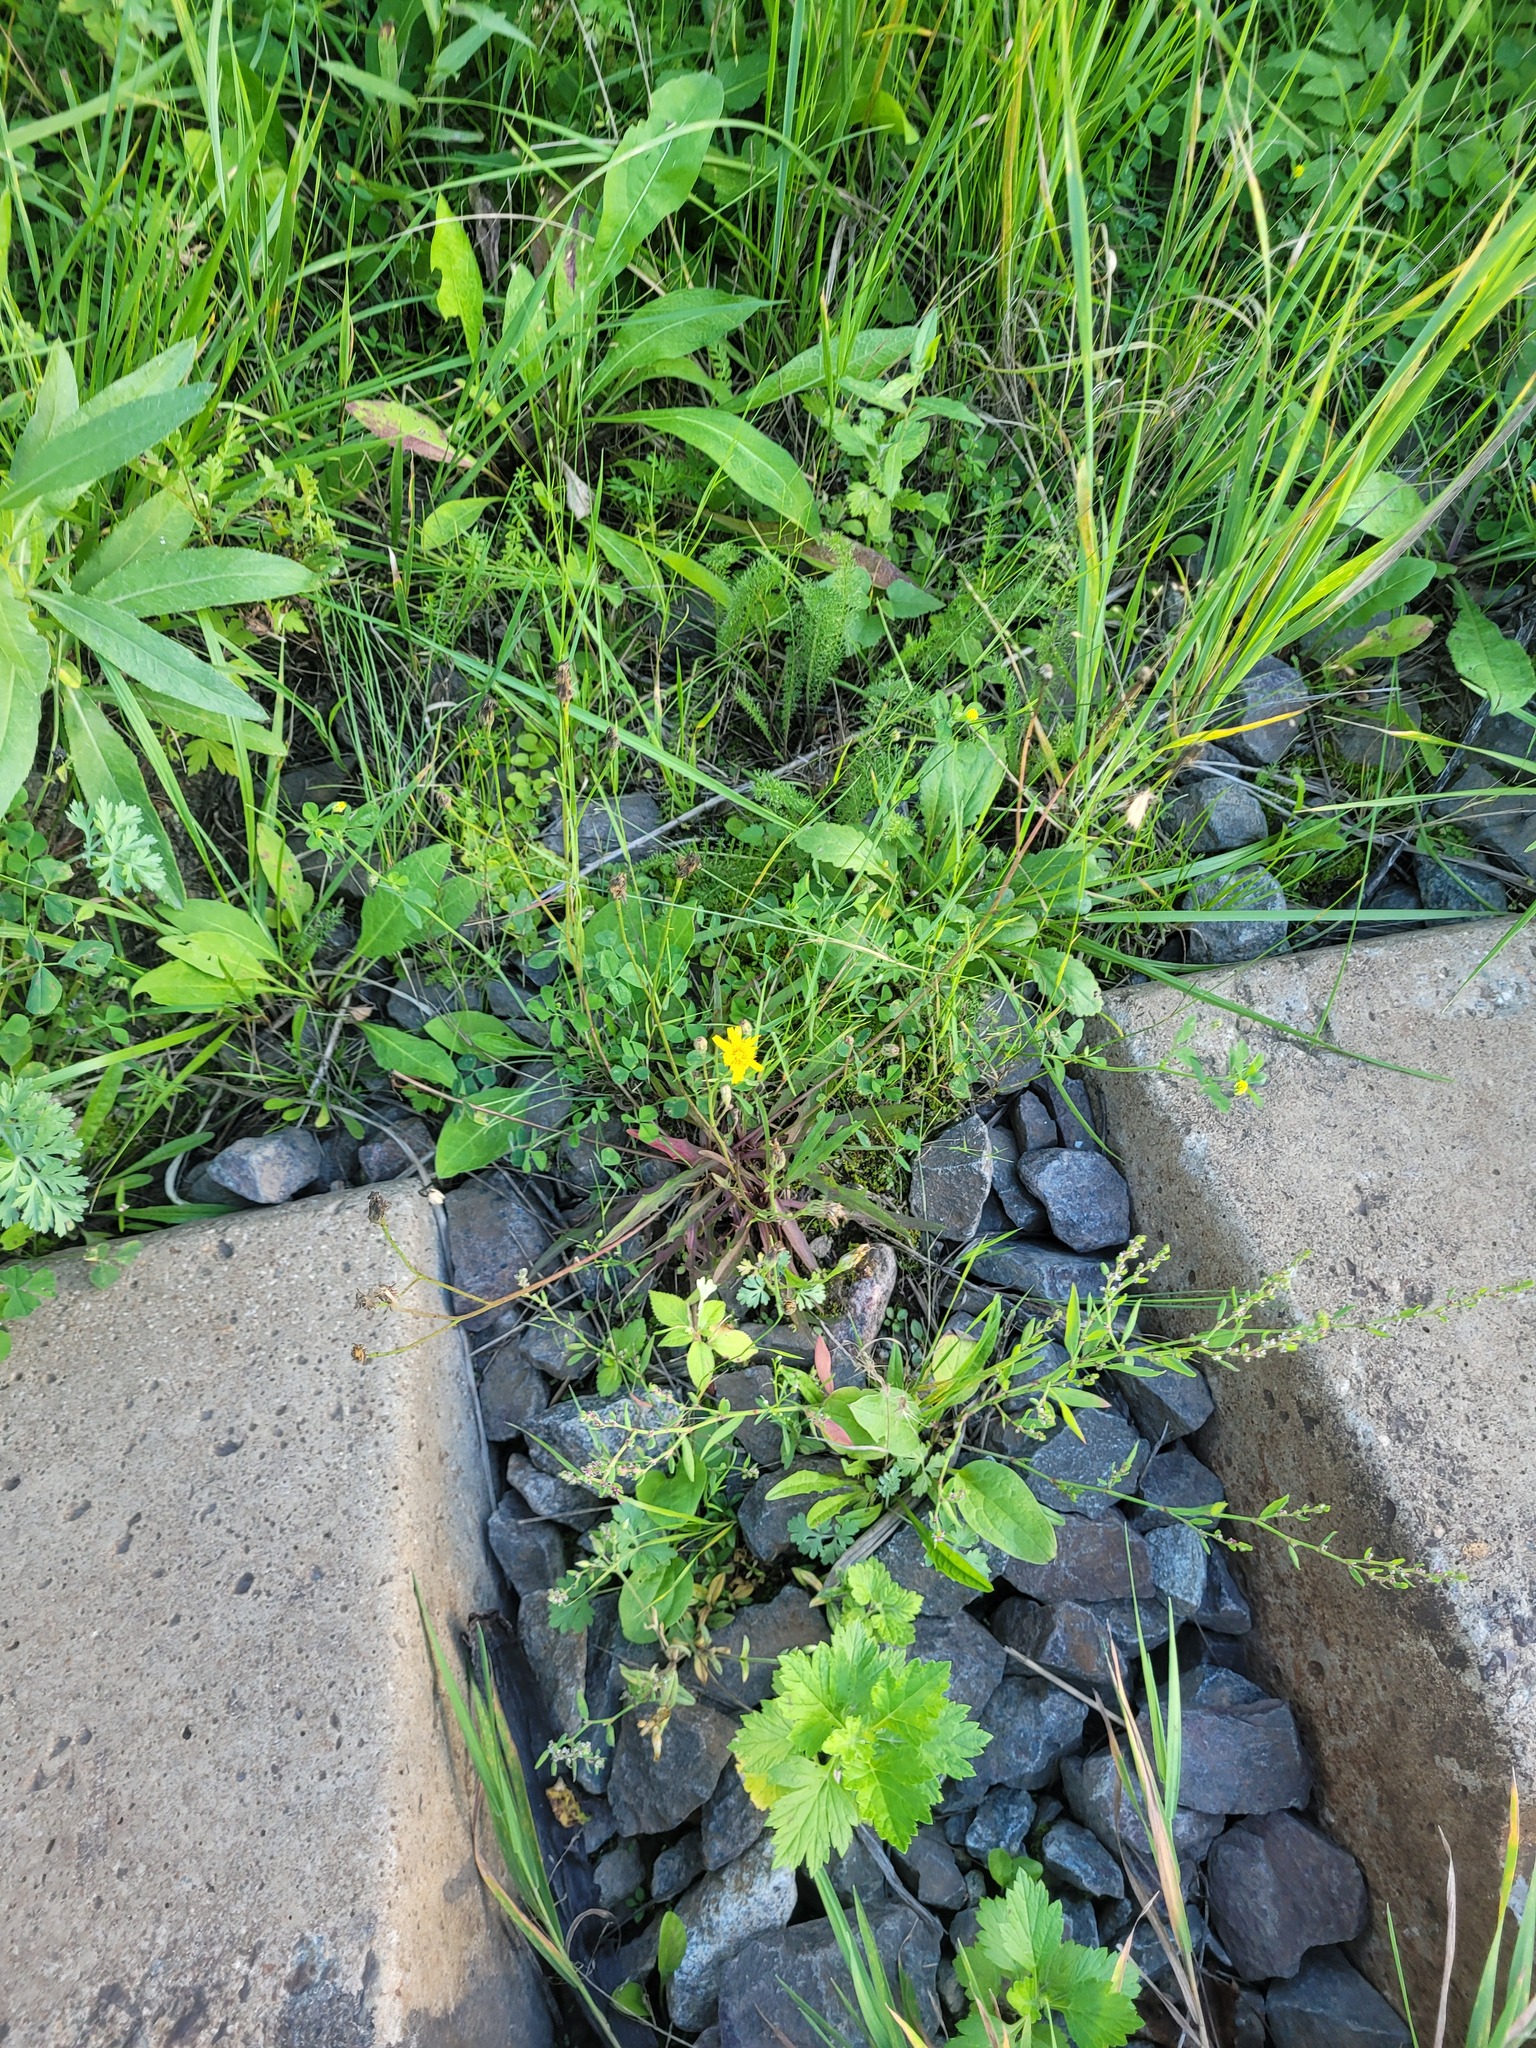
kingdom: Plantae
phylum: Tracheophyta
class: Magnoliopsida
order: Asterales
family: Asteraceae
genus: Scorzoneroides
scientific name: Scorzoneroides autumnalis
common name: Autumn hawkbit
